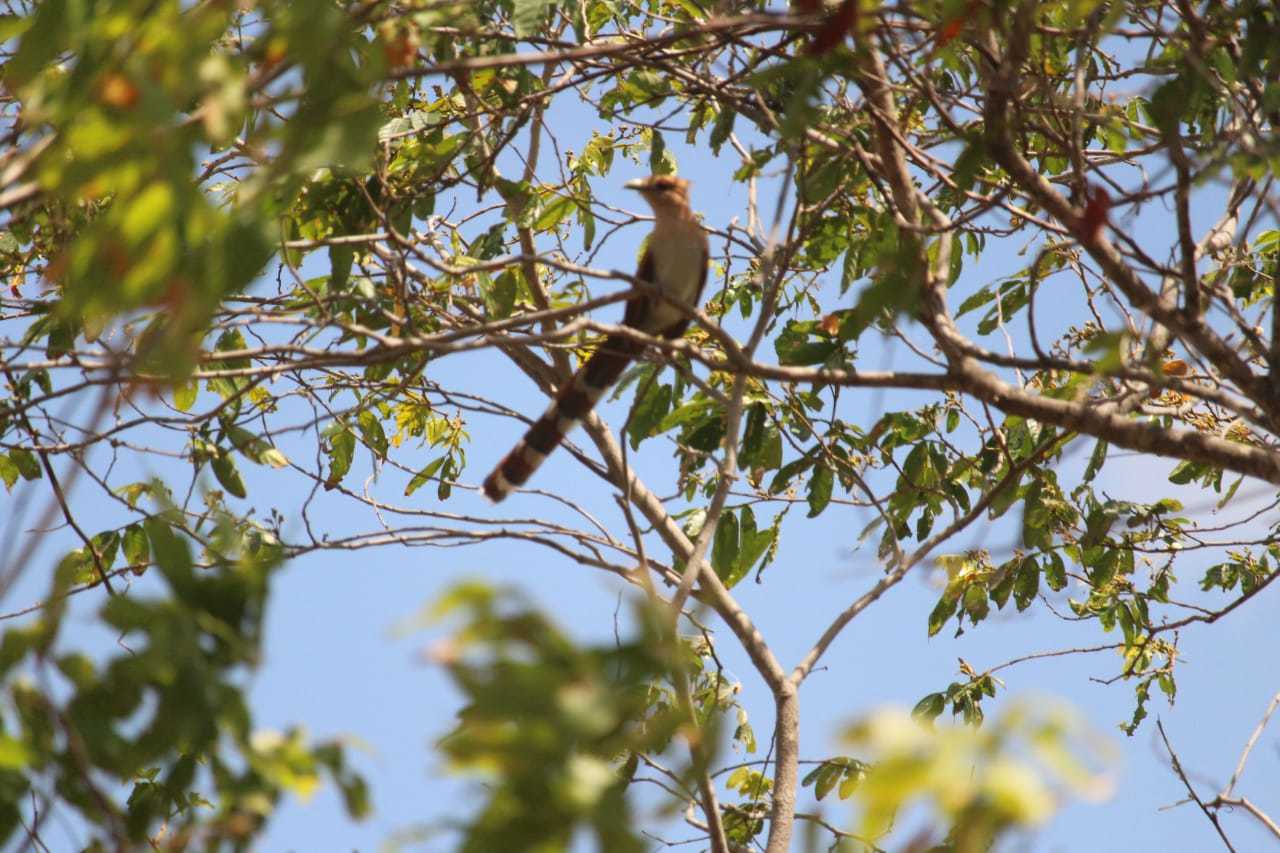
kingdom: Animalia
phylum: Chordata
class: Aves
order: Cuculiformes
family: Cuculidae
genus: Piaya
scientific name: Piaya cayana
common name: Squirrel cuckoo
